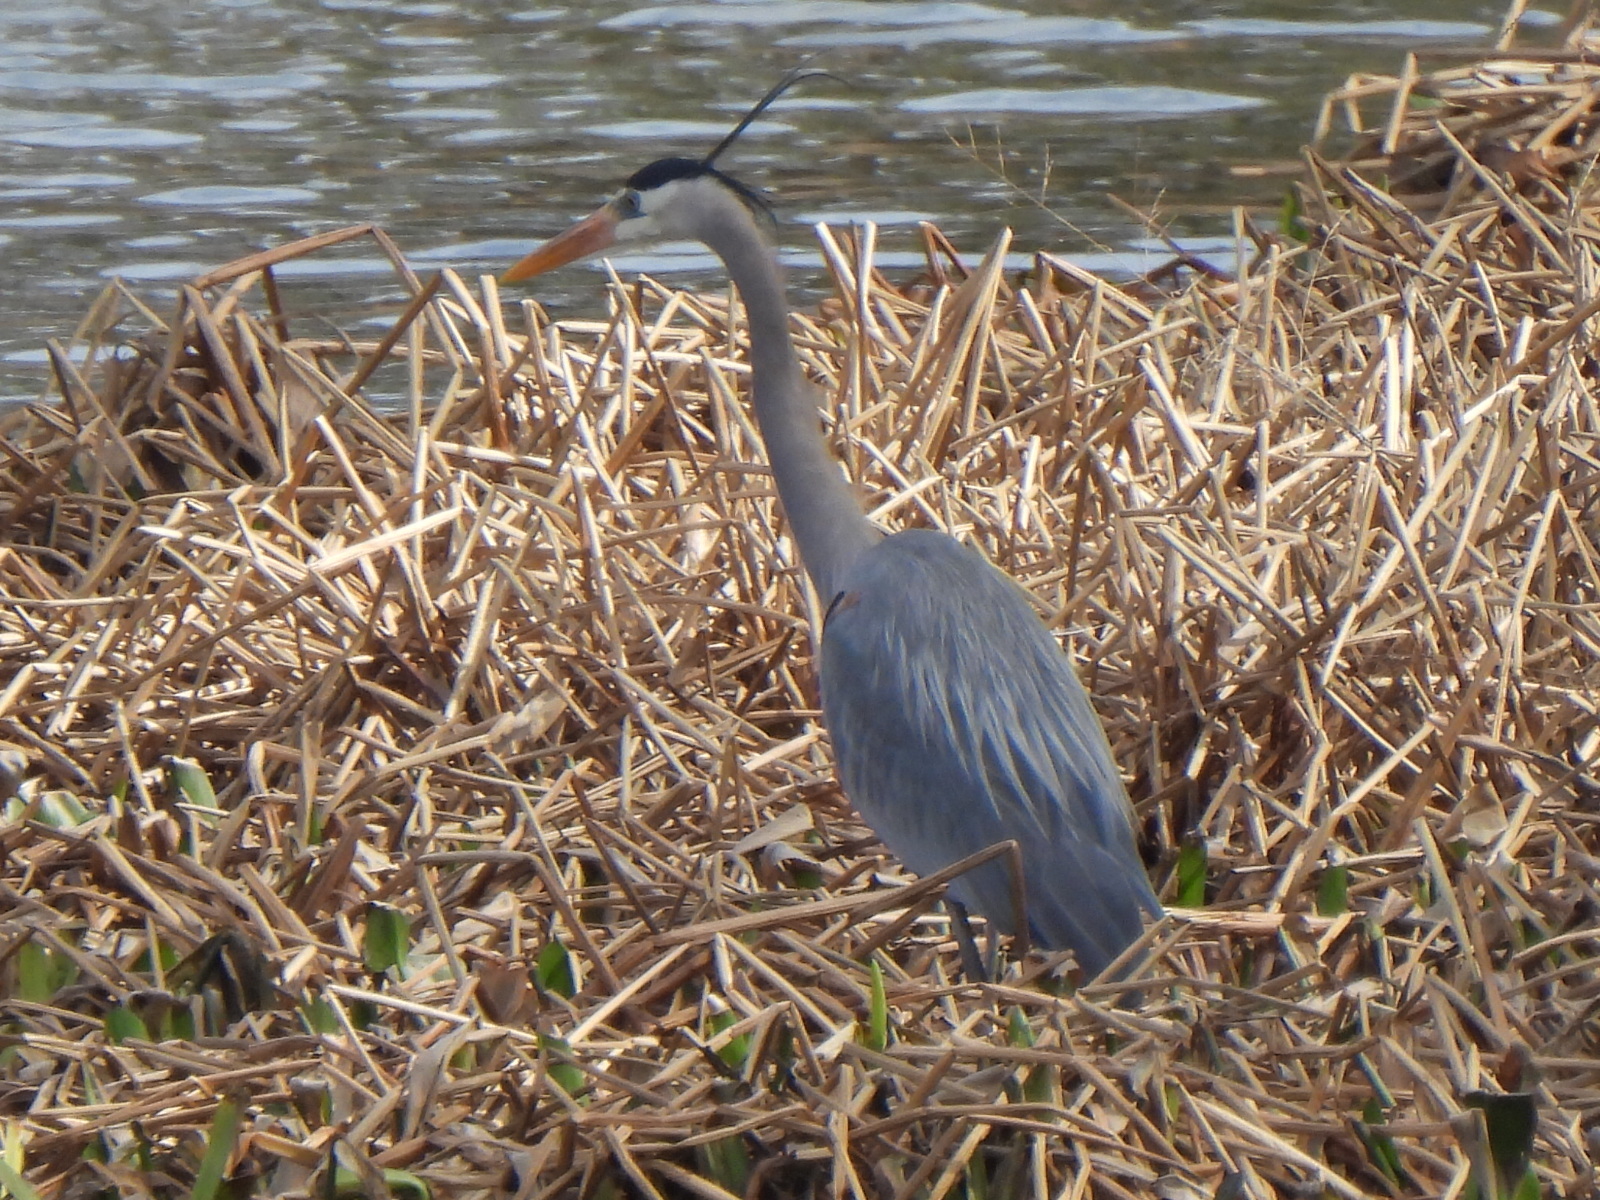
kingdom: Animalia
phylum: Chordata
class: Aves
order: Pelecaniformes
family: Ardeidae
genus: Ardea
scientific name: Ardea herodias
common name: Great blue heron
